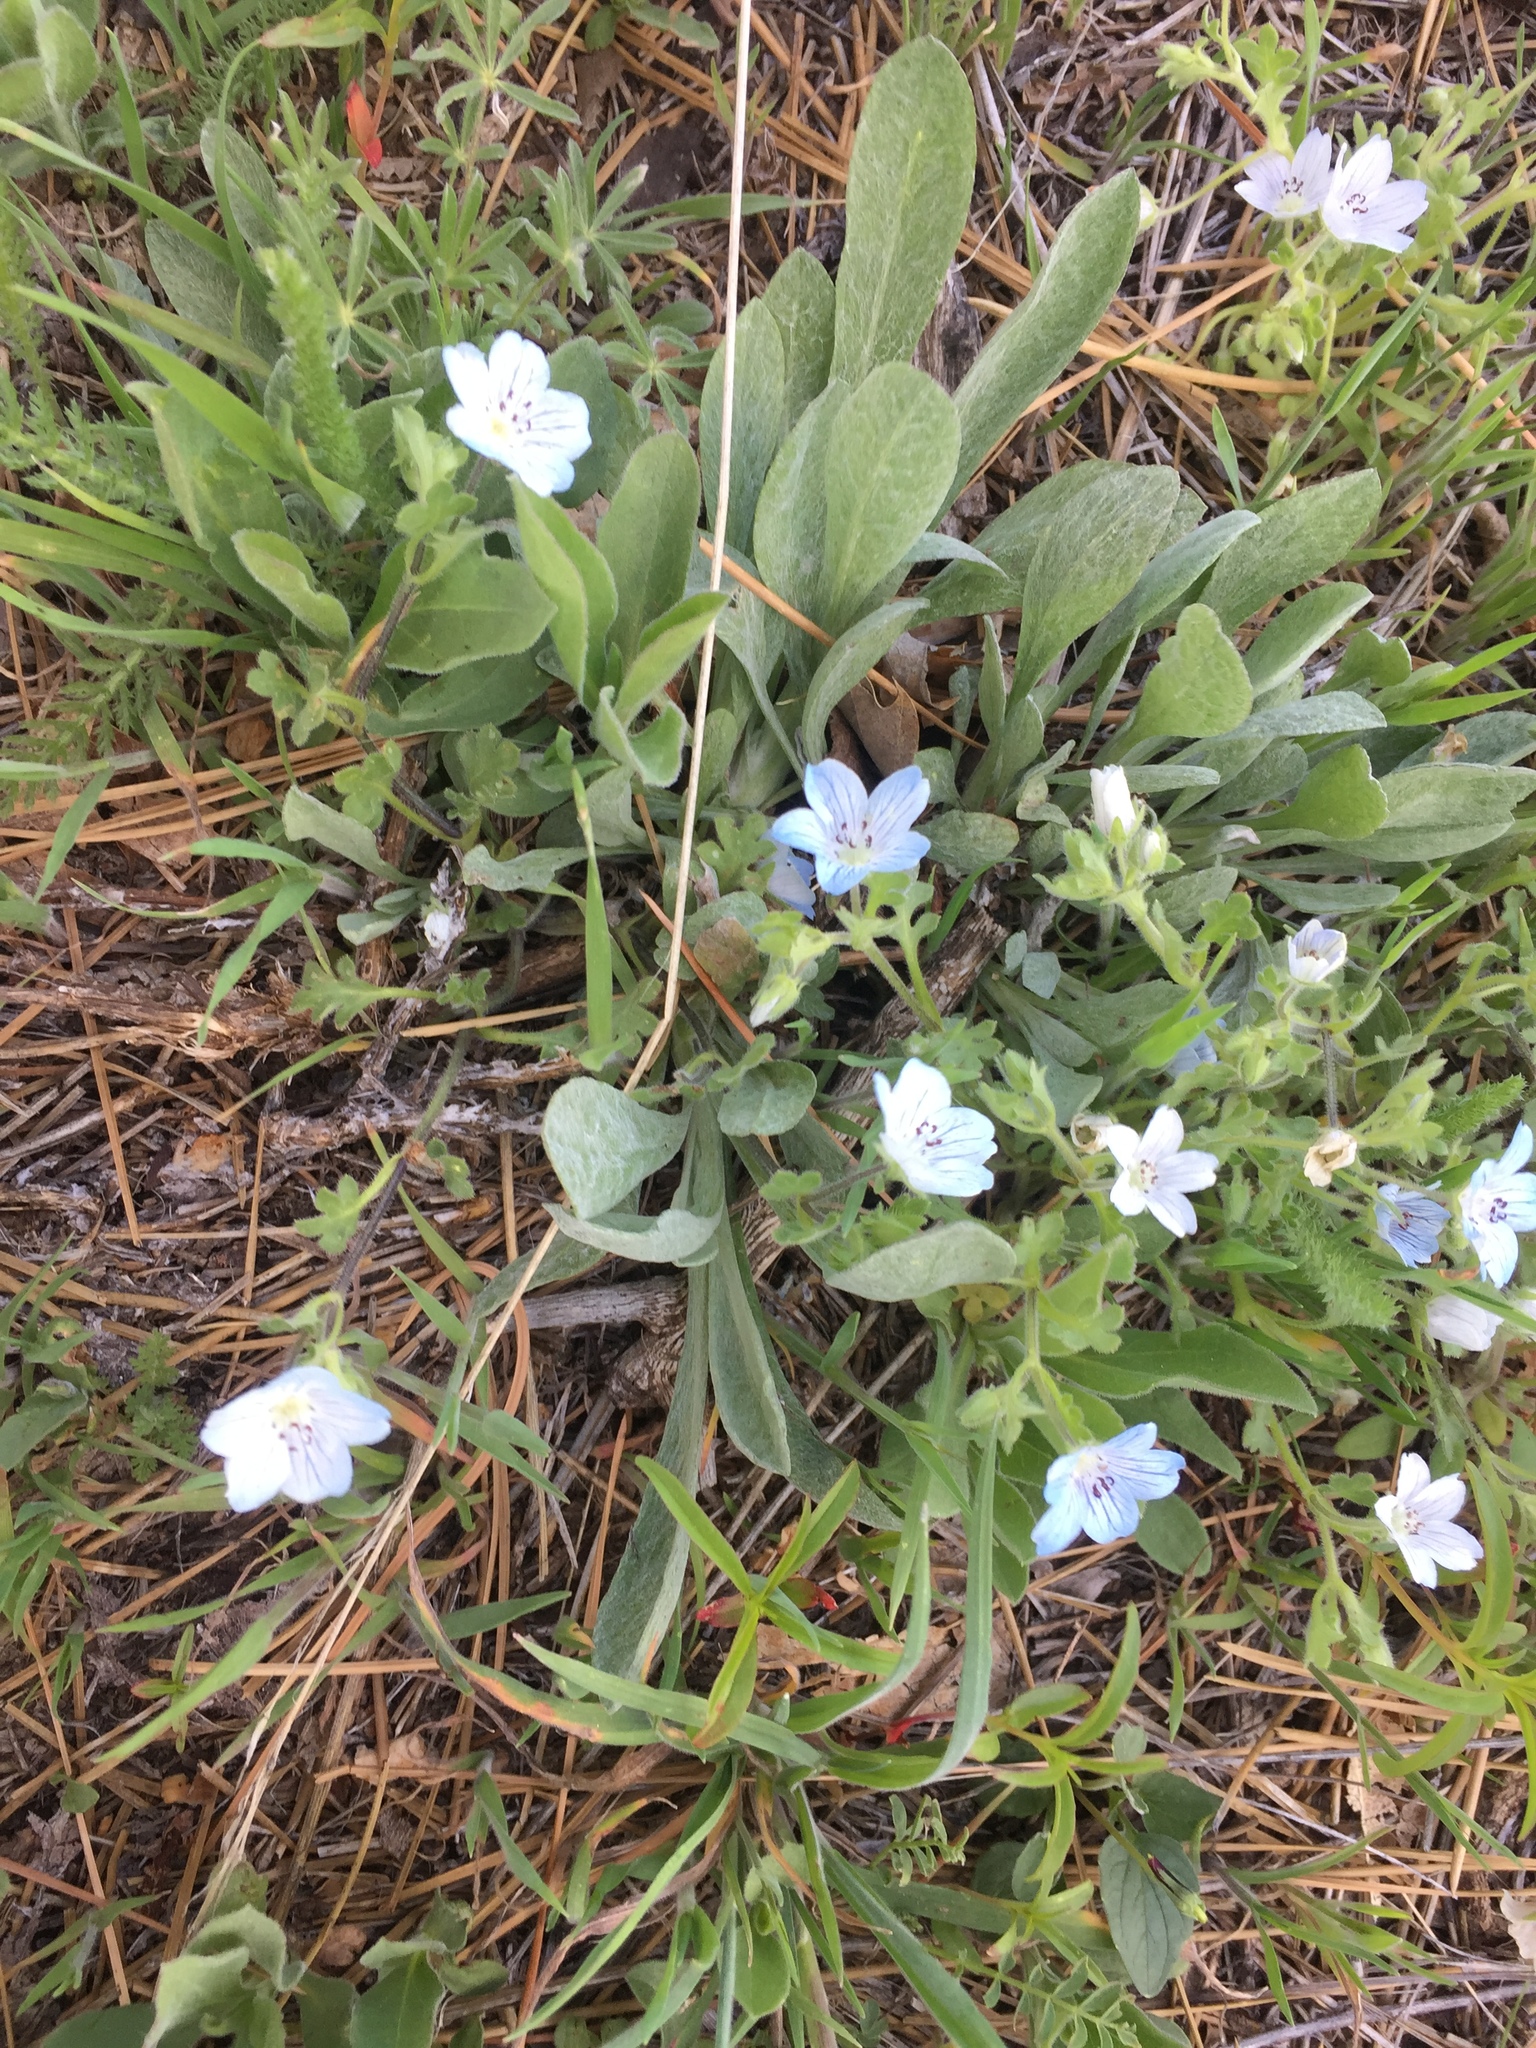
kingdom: Plantae
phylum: Tracheophyta
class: Magnoliopsida
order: Boraginales
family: Hydrophyllaceae
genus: Nemophila
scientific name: Nemophila menziesii
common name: Baby's-blue-eyes
